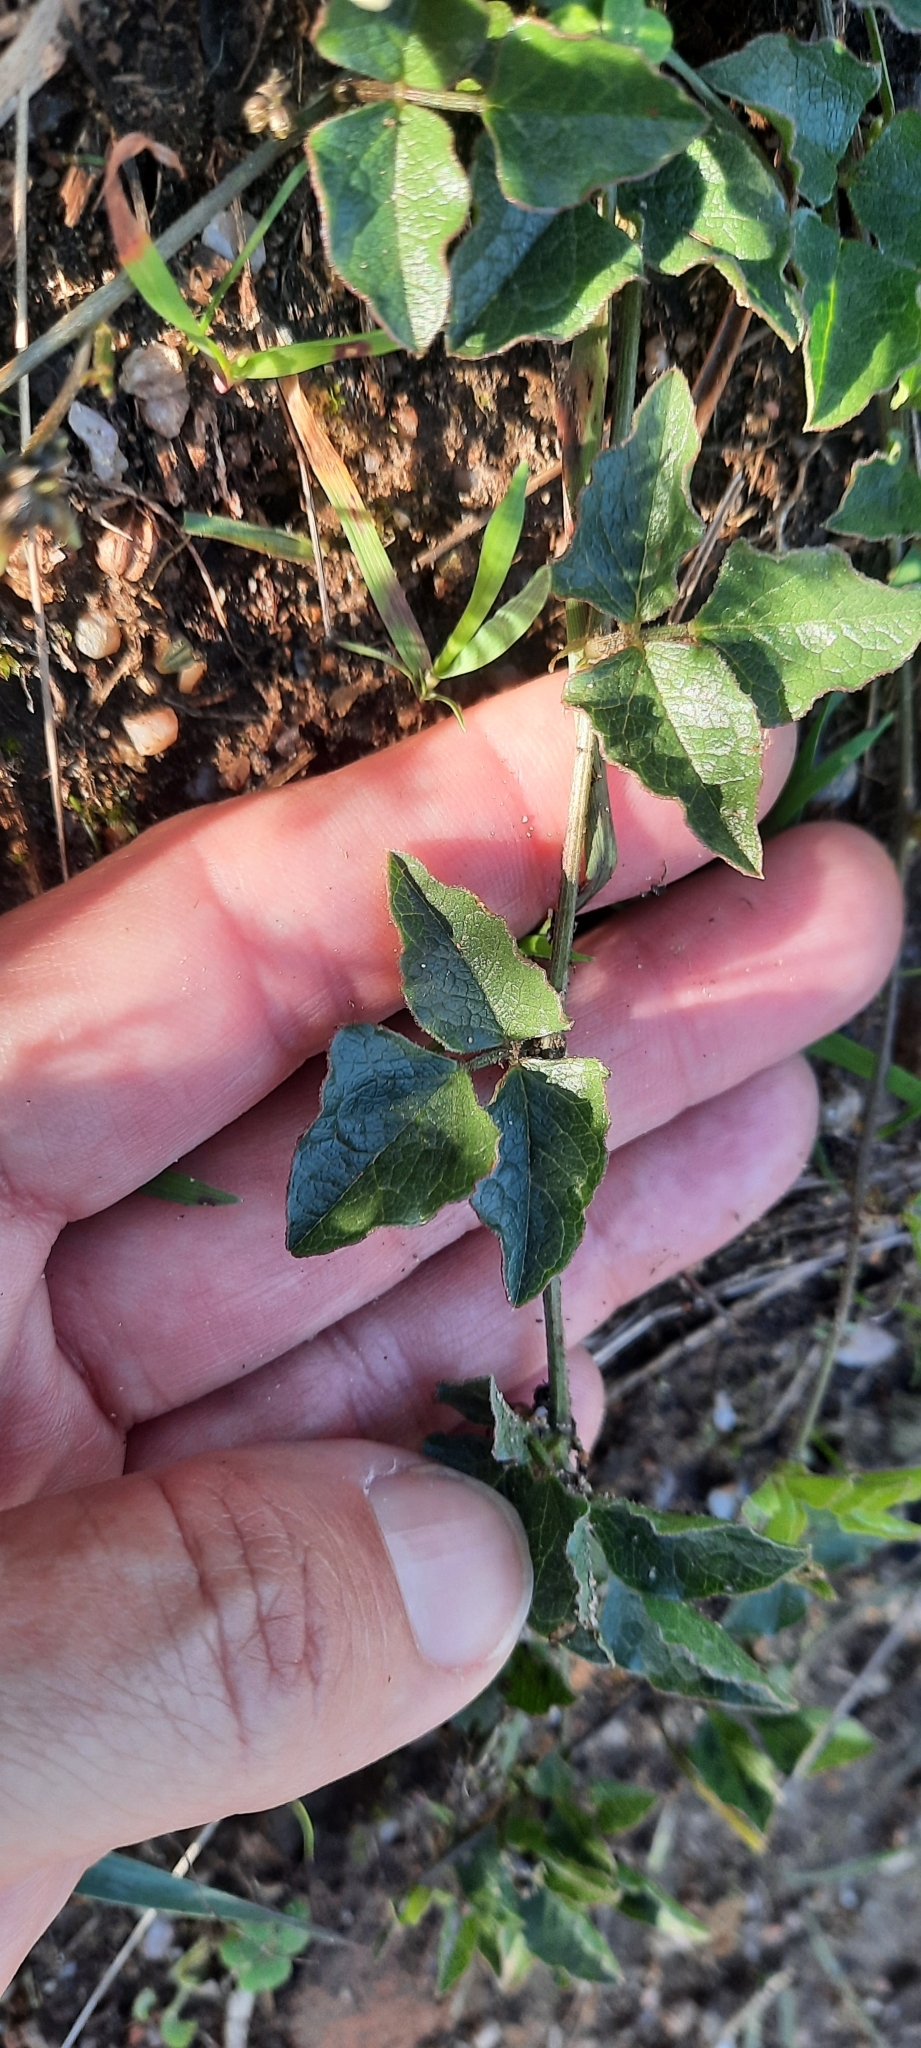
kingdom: Plantae
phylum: Tracheophyta
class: Magnoliopsida
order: Fabales
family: Fabaceae
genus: Dolichos
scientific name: Dolichos decumbens
